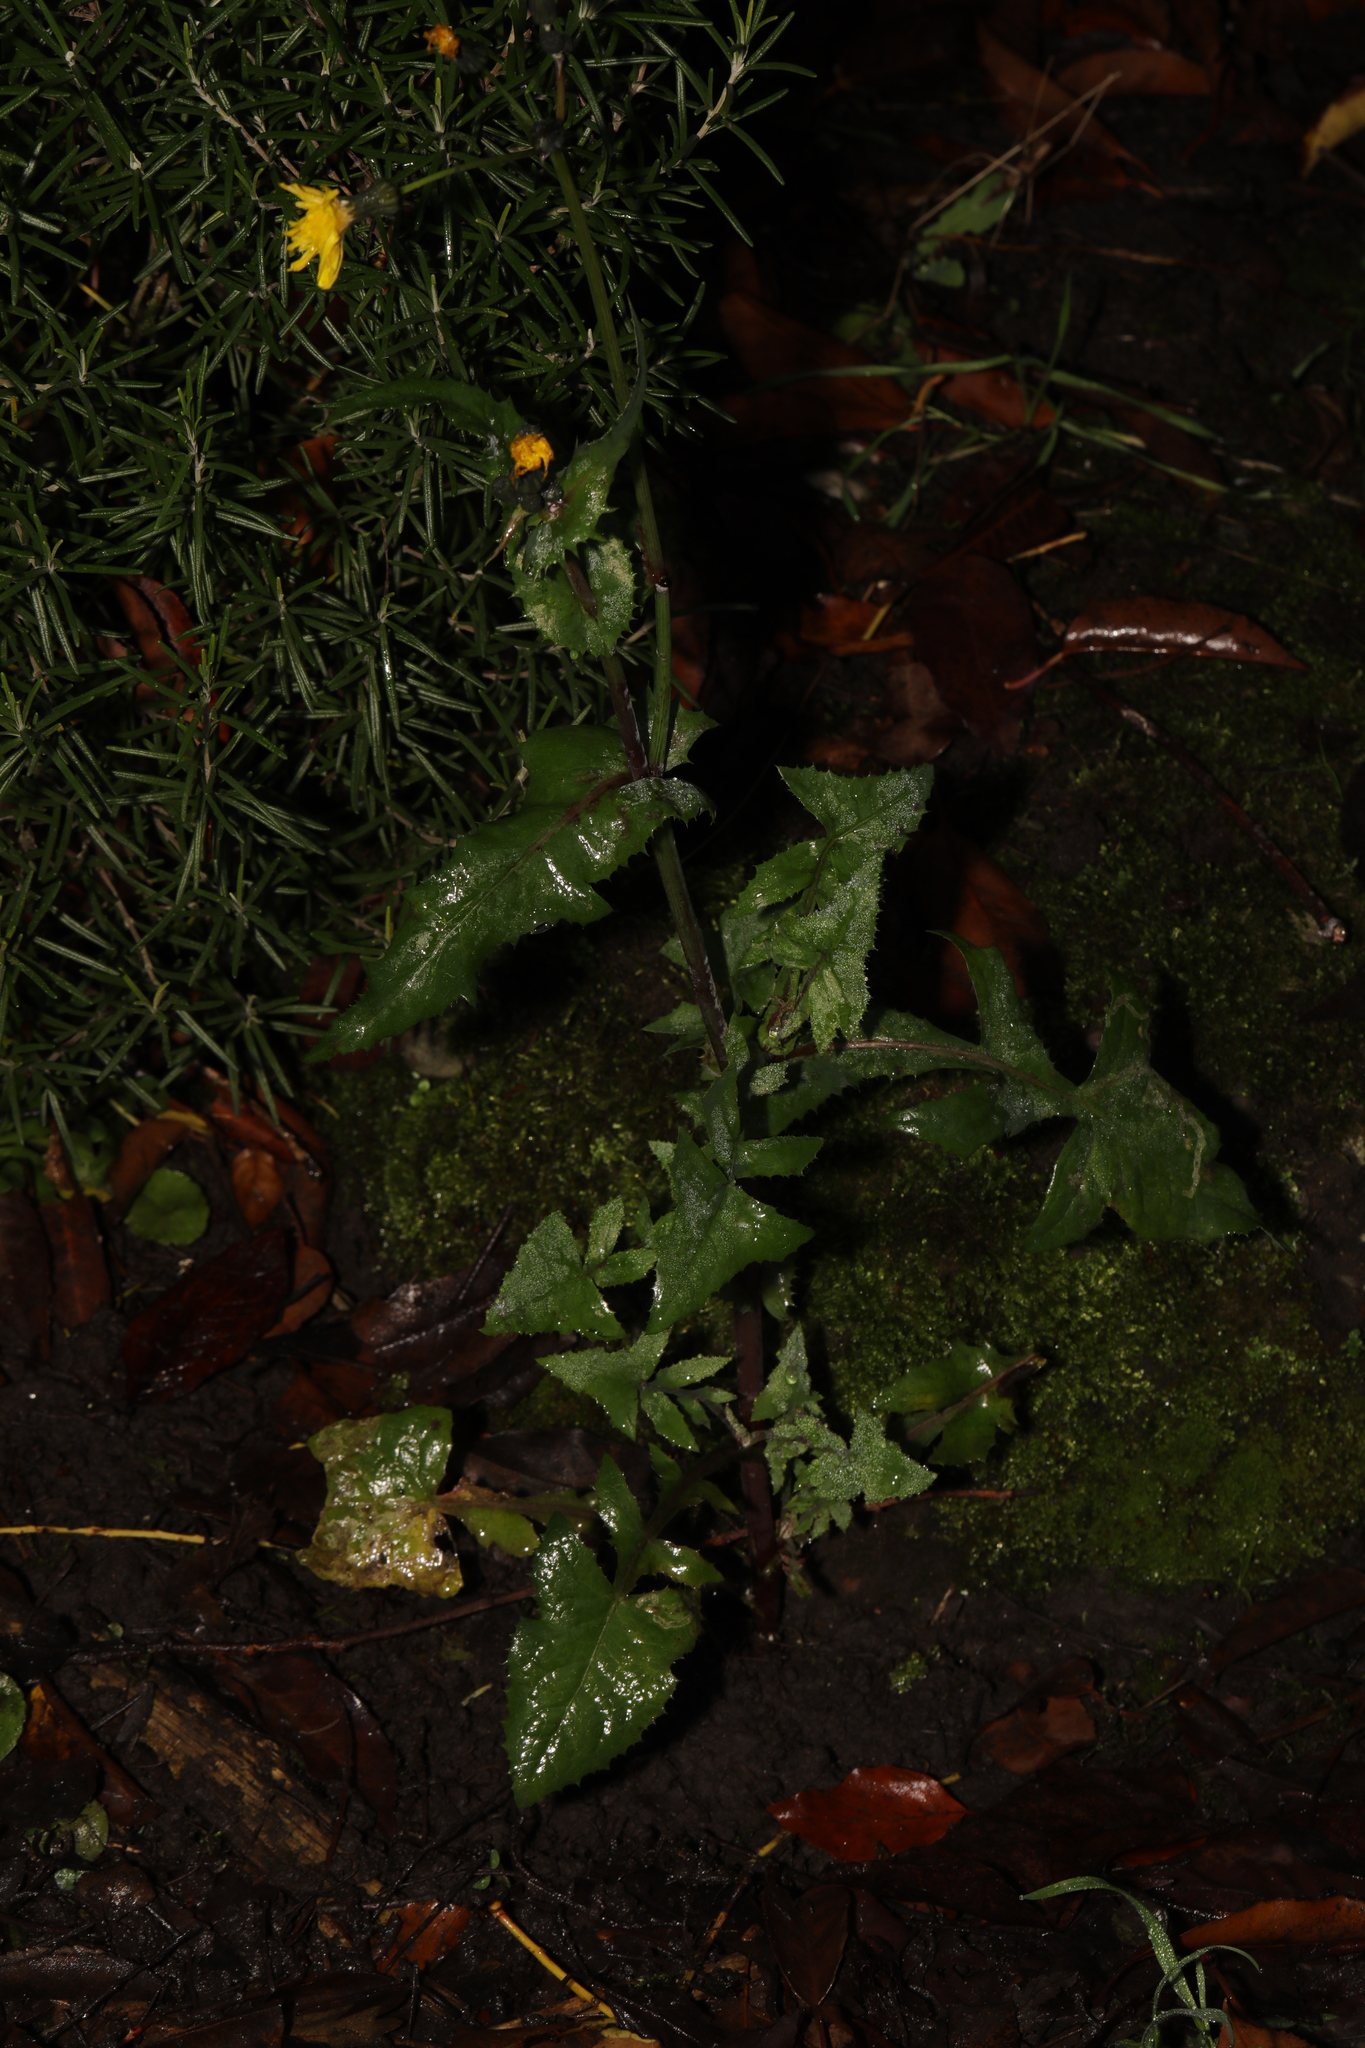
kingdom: Plantae
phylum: Tracheophyta
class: Magnoliopsida
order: Asterales
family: Asteraceae
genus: Sonchus
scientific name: Sonchus oleraceus
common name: Common sowthistle
